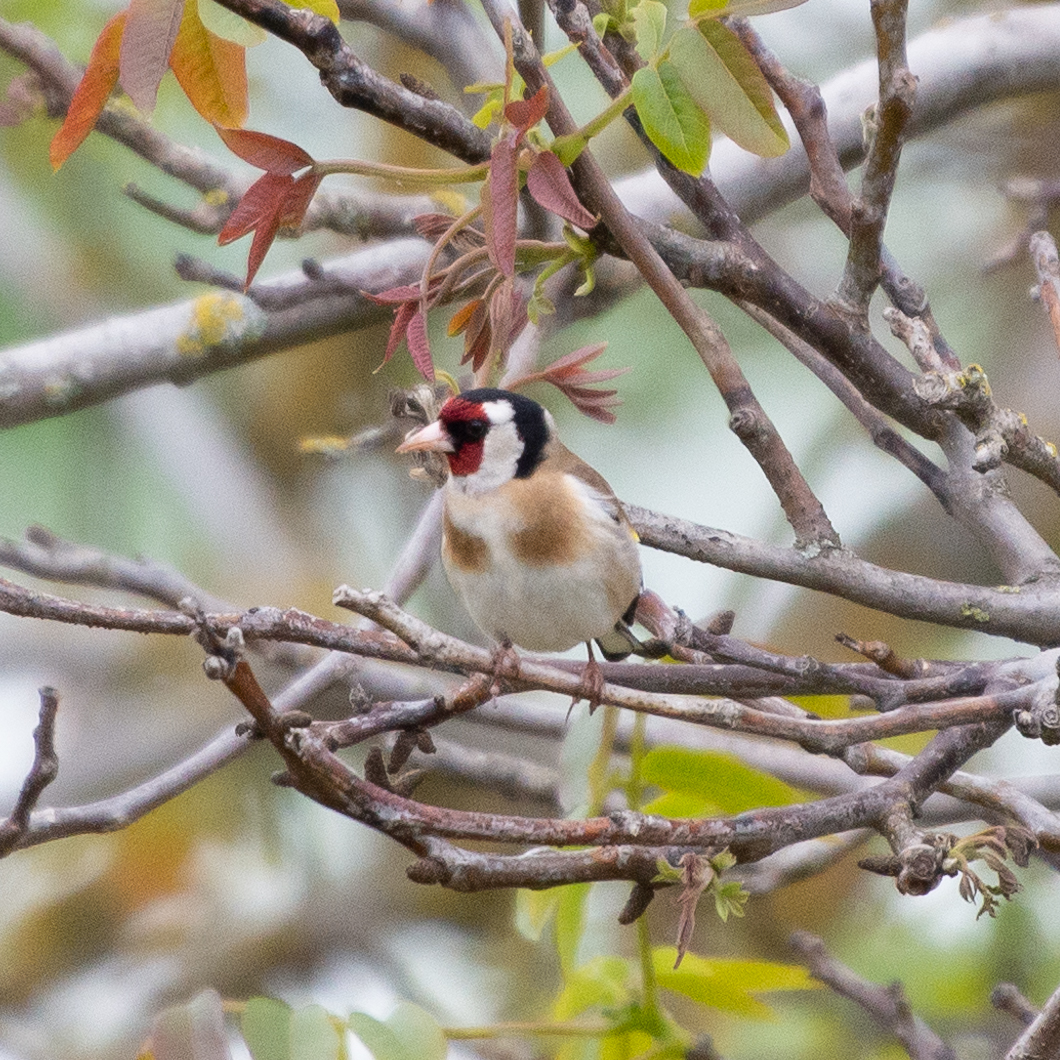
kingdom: Animalia
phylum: Chordata
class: Aves
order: Passeriformes
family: Fringillidae
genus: Carduelis
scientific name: Carduelis carduelis
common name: European goldfinch
